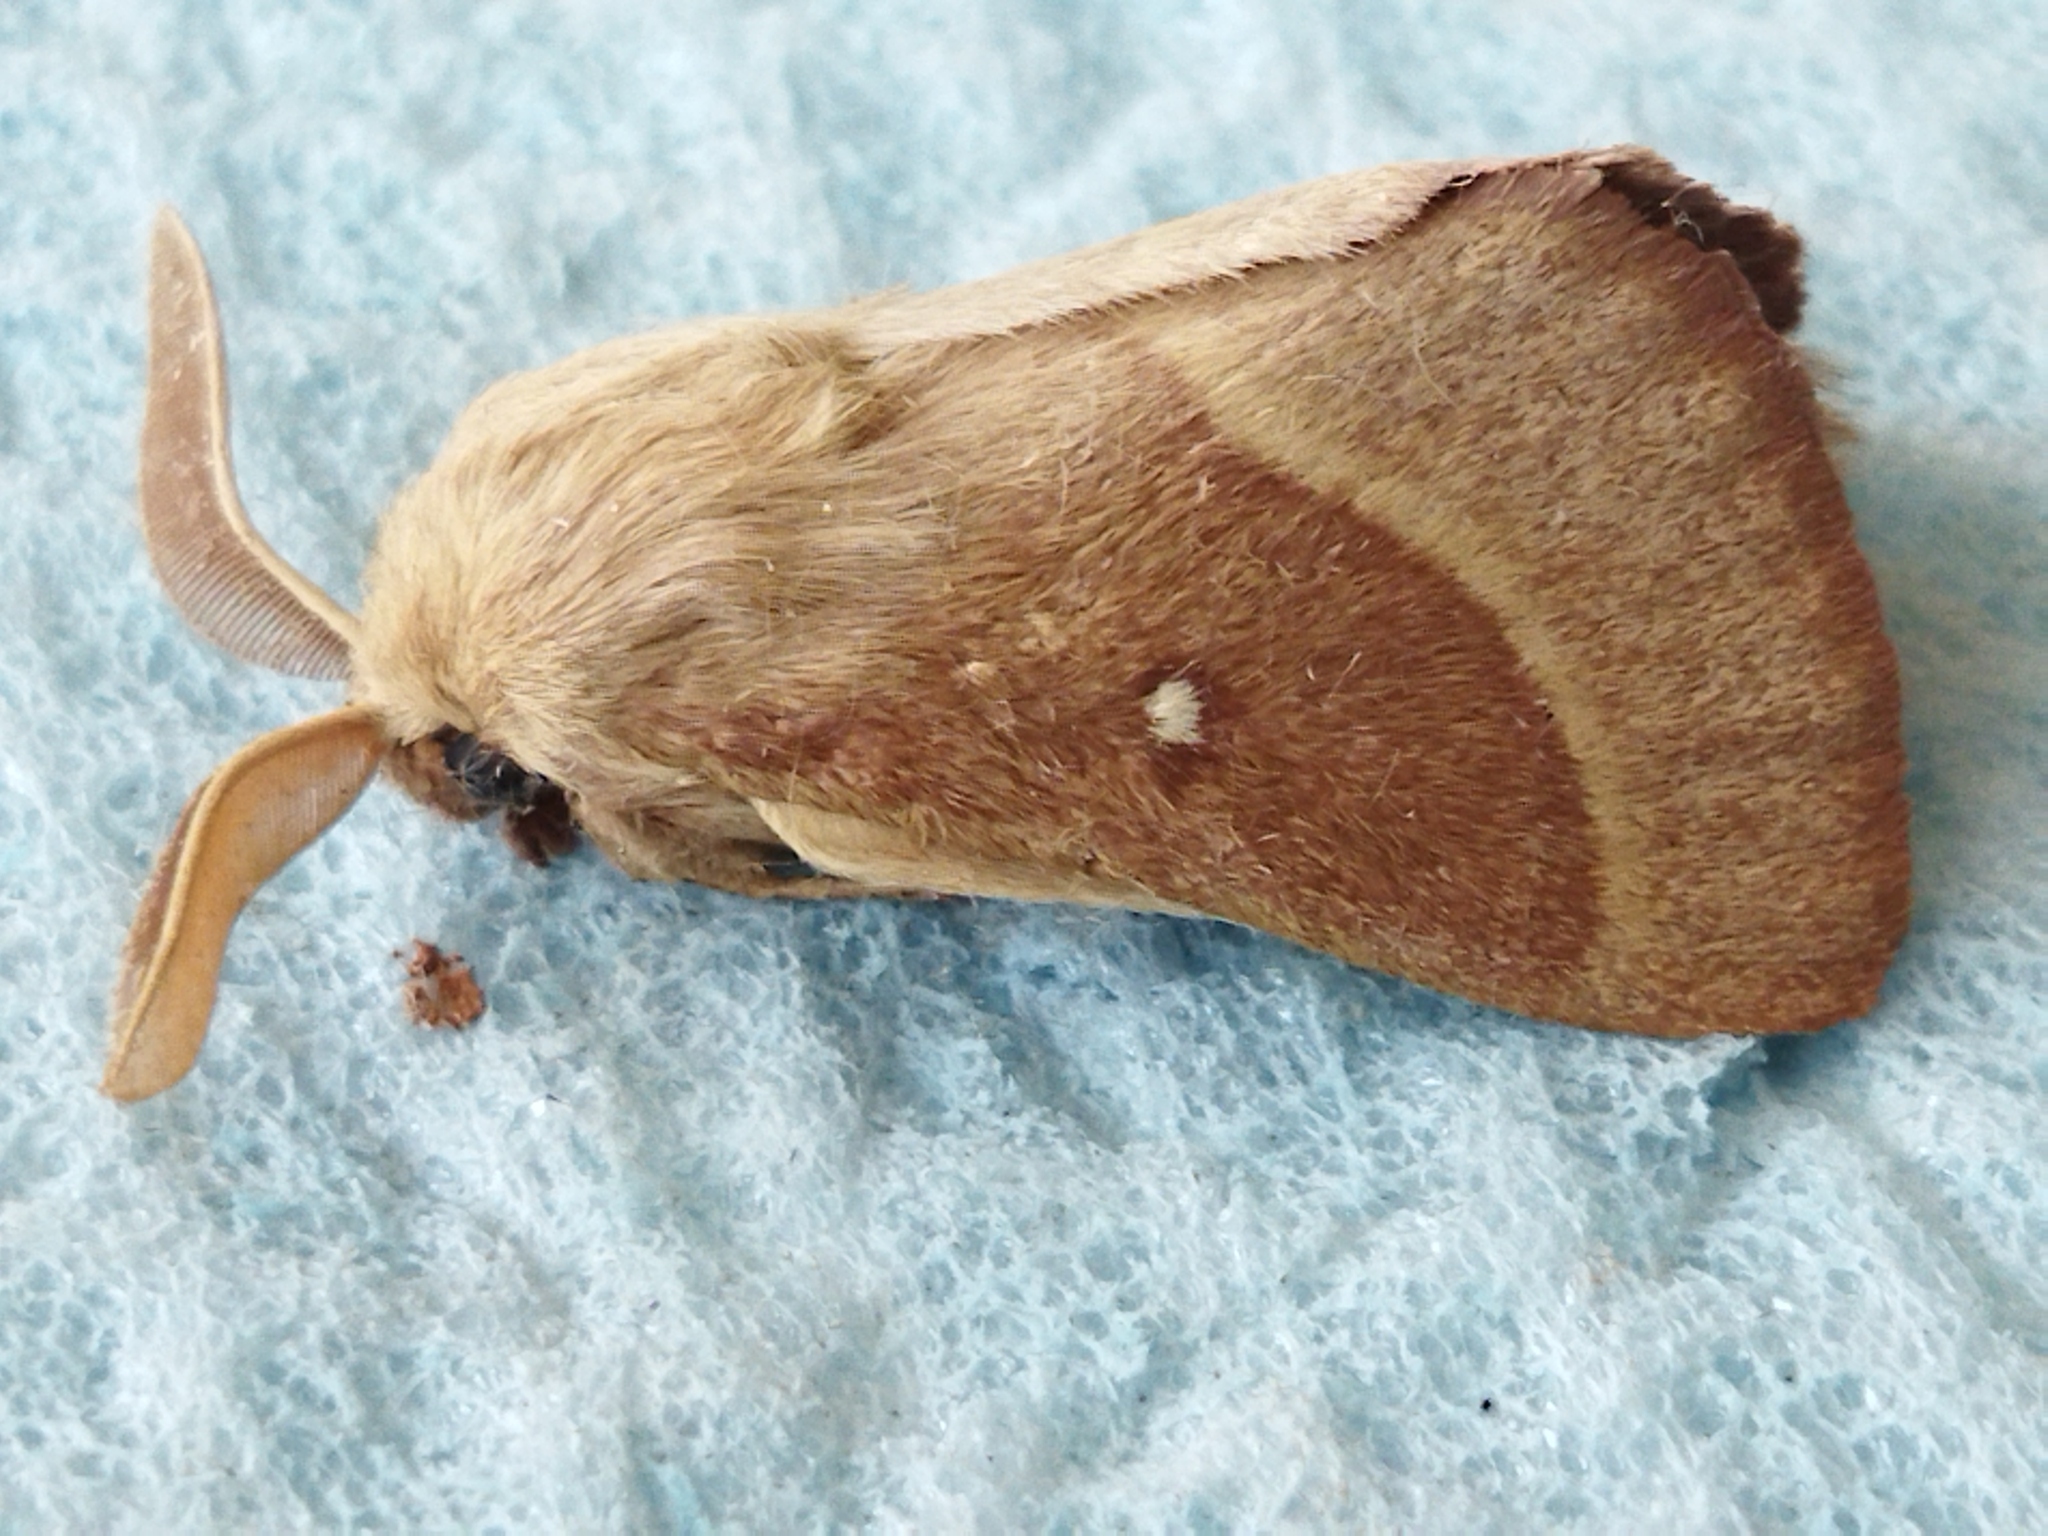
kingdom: Animalia
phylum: Arthropoda
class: Insecta
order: Lepidoptera
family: Lasiocampidae
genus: Lasiocampa
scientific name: Lasiocampa trifolii
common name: Grass eggar
